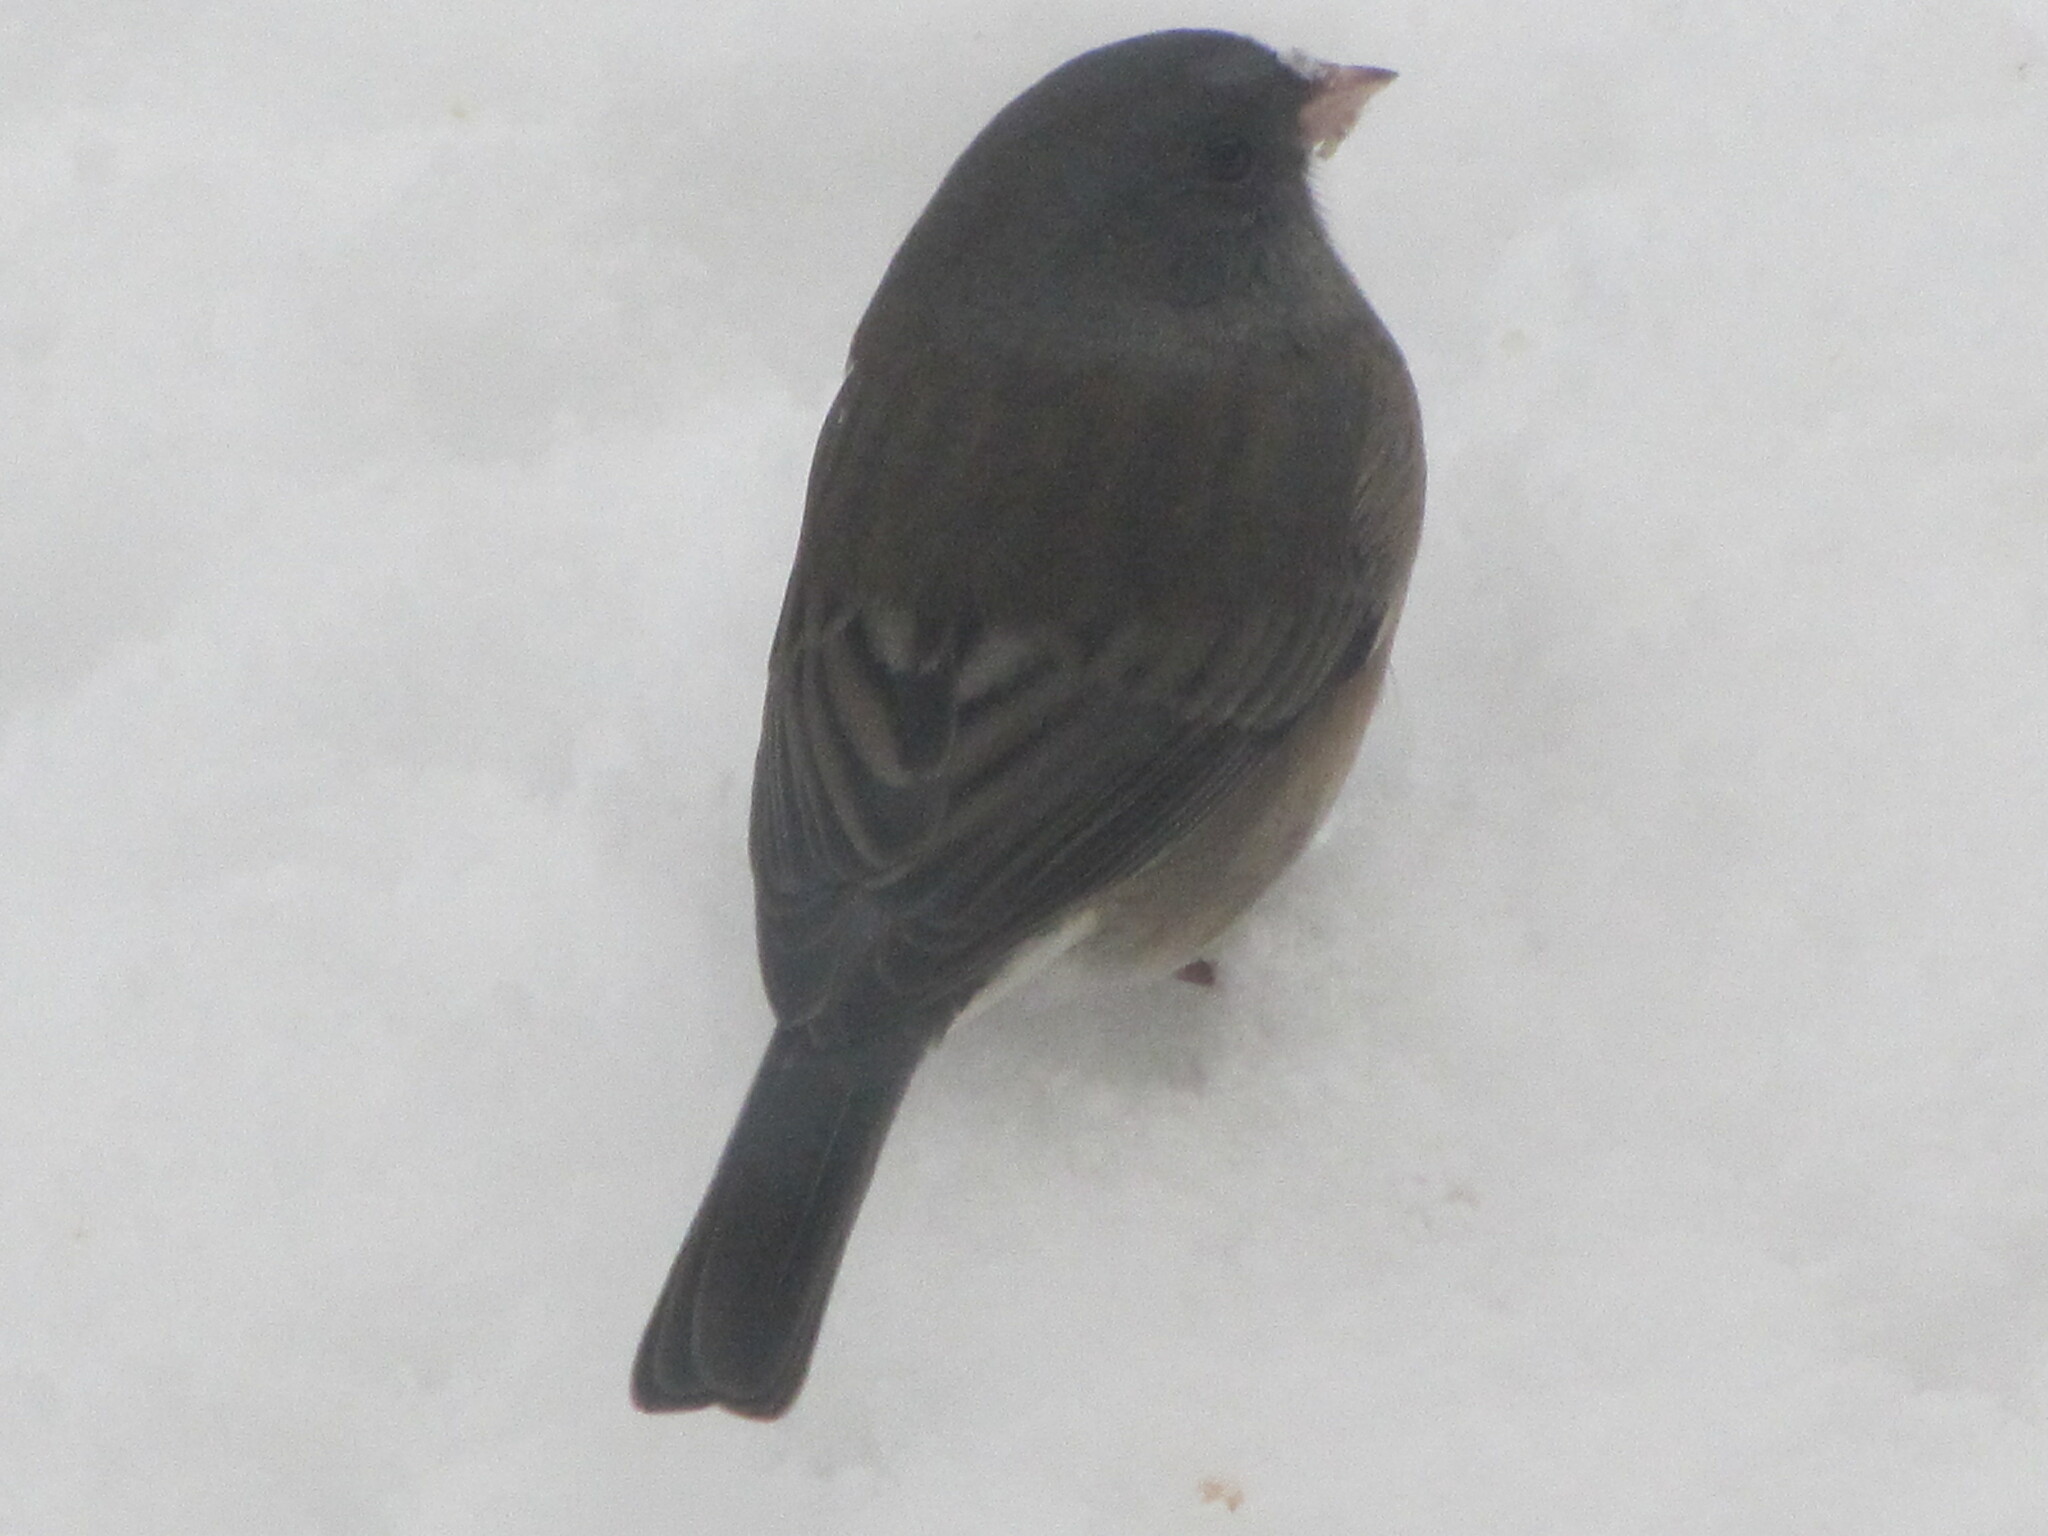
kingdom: Animalia
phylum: Chordata
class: Aves
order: Passeriformes
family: Passerellidae
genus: Junco
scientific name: Junco hyemalis
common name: Dark-eyed junco
